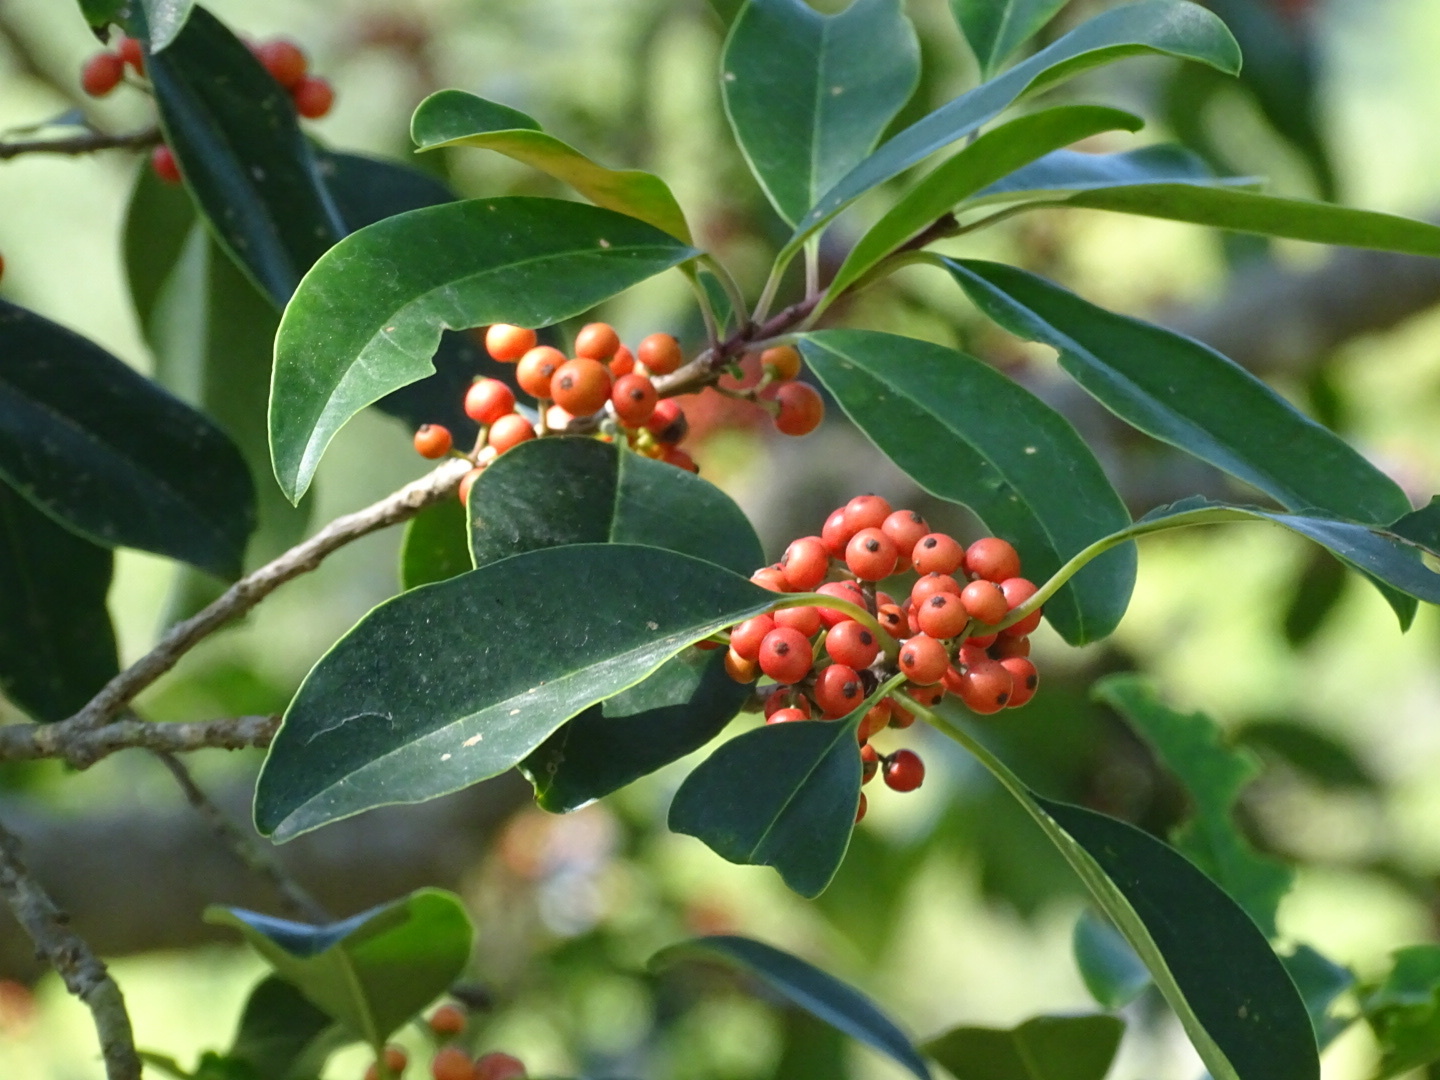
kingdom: Plantae
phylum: Tracheophyta
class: Magnoliopsida
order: Aquifoliales
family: Aquifoliaceae
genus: Ilex
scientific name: Ilex rotunda
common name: Kurogane holly
